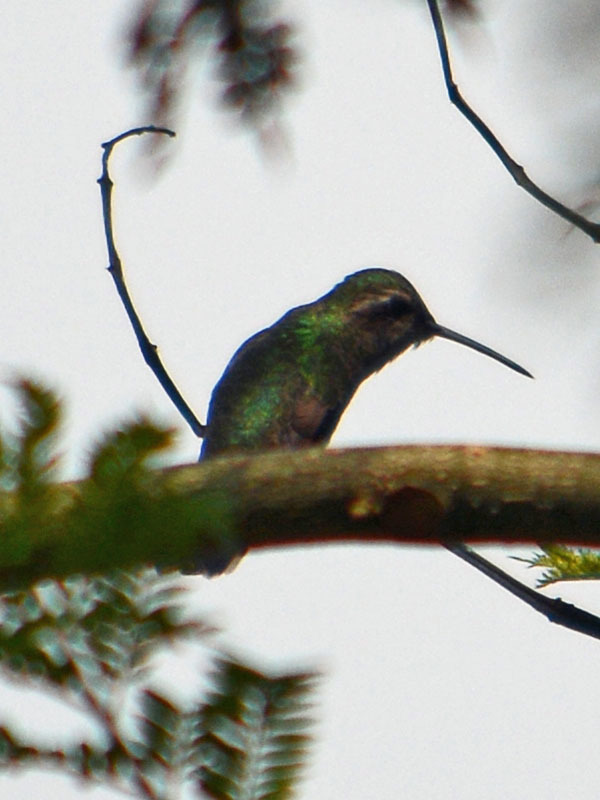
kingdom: Animalia
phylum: Chordata
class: Aves
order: Apodiformes
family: Trochilidae
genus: Cynanthus
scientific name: Cynanthus latirostris
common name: Broad-billed hummingbird
